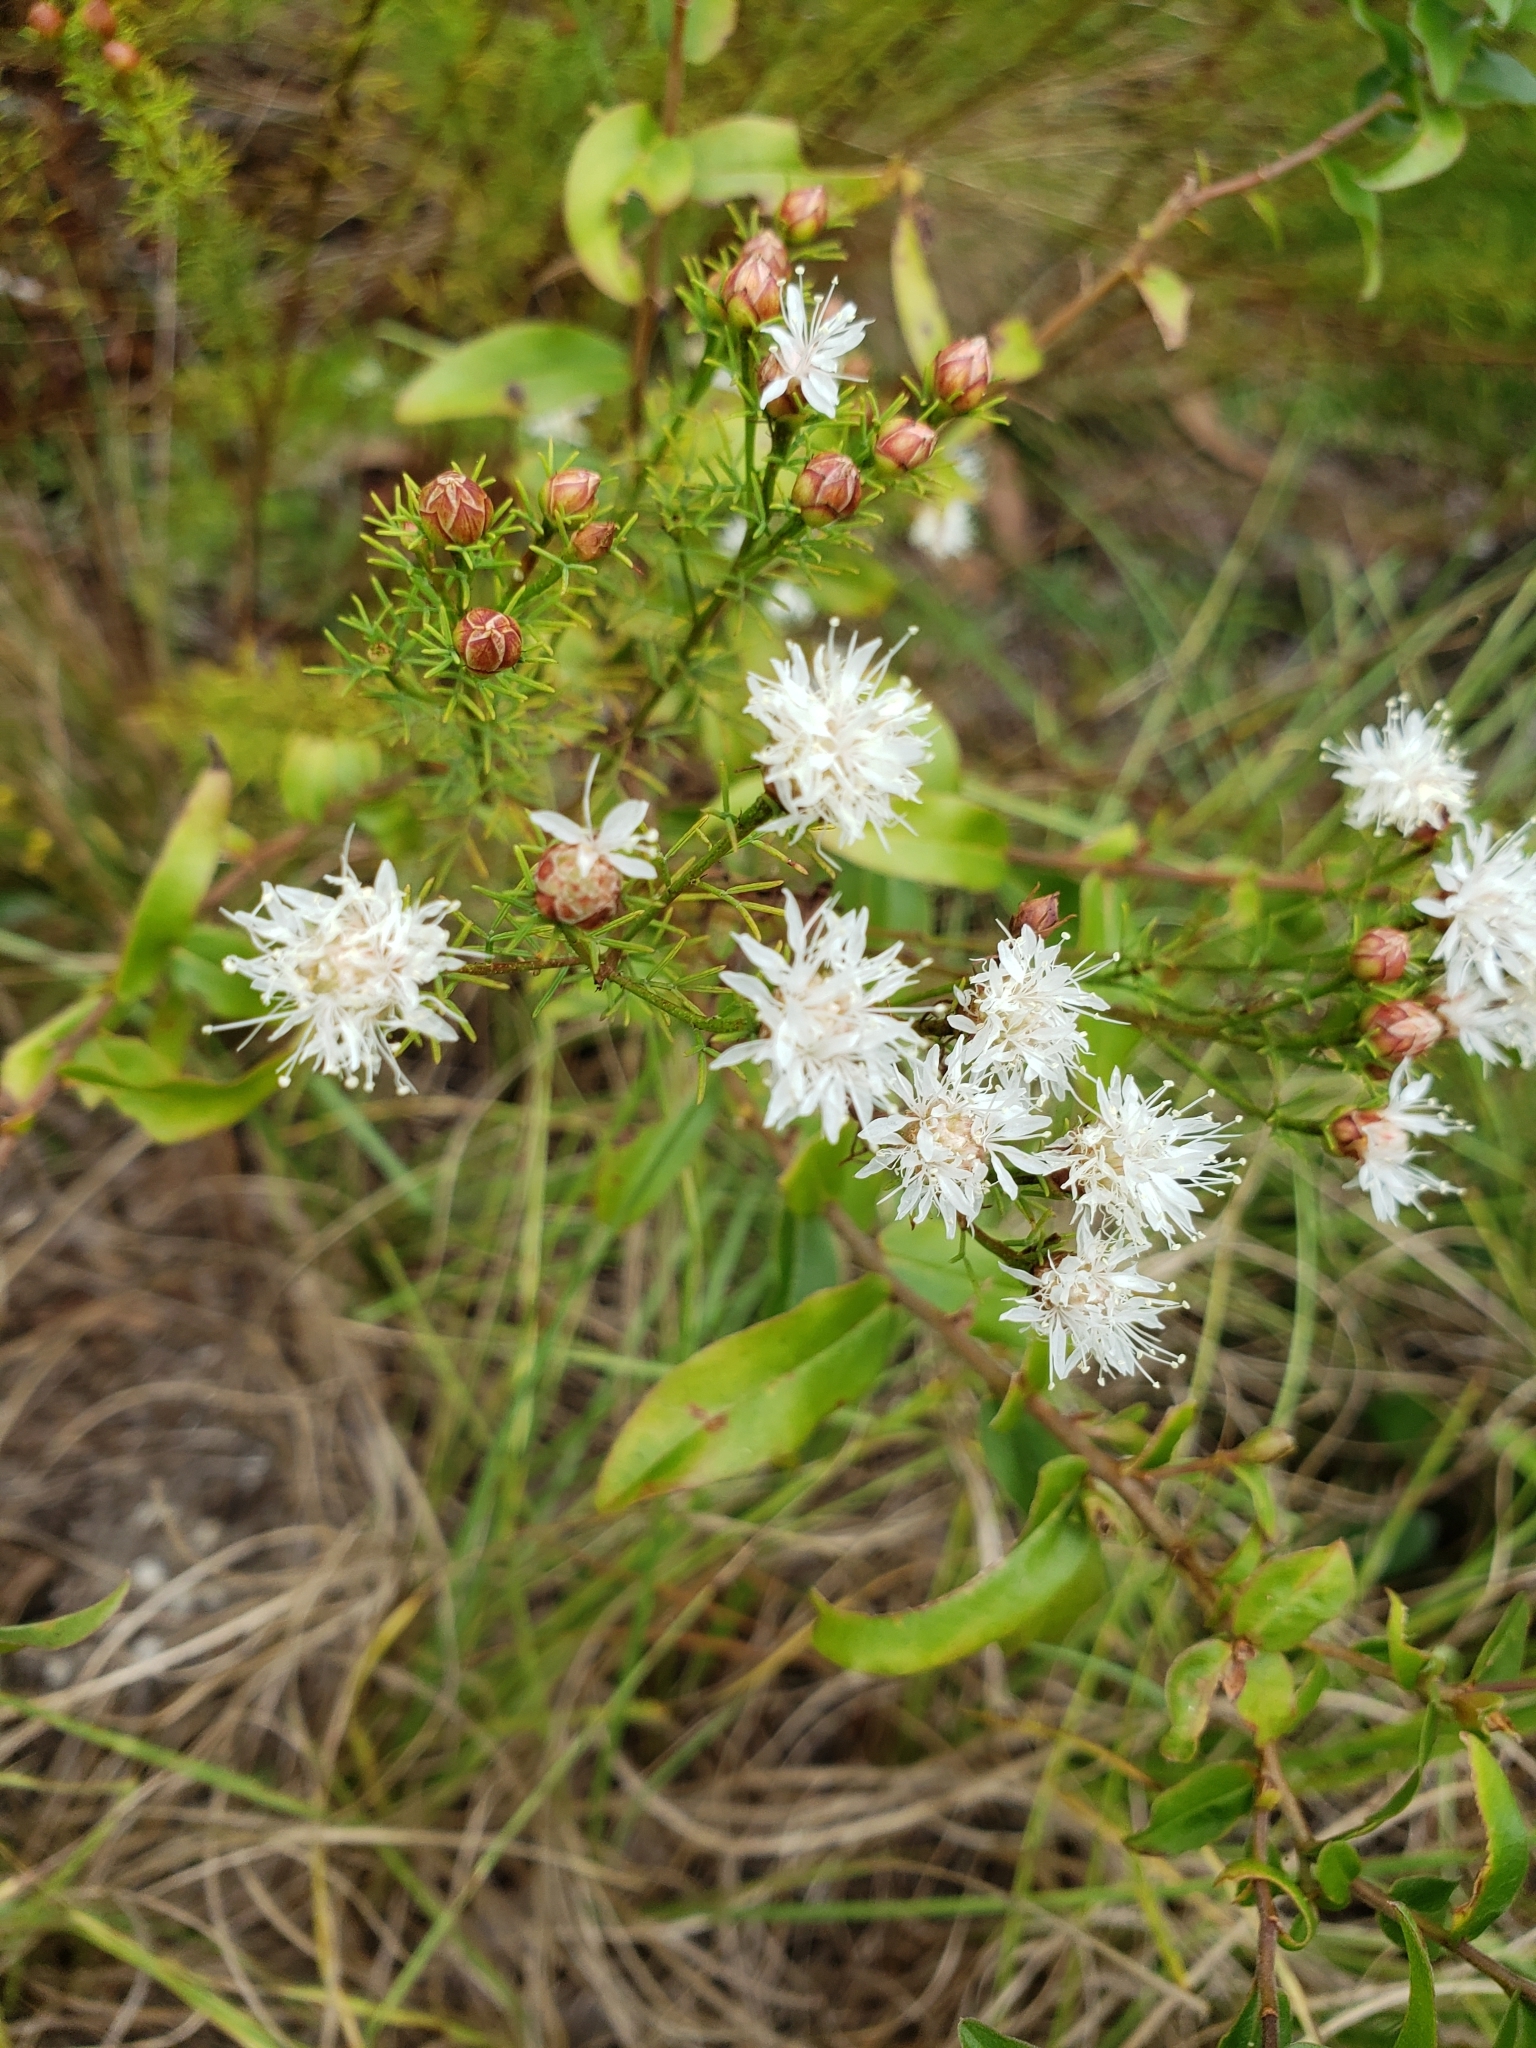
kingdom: Plantae
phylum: Tracheophyta
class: Magnoliopsida
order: Fabales
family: Fabaceae
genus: Dalea
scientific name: Dalea pinnata
